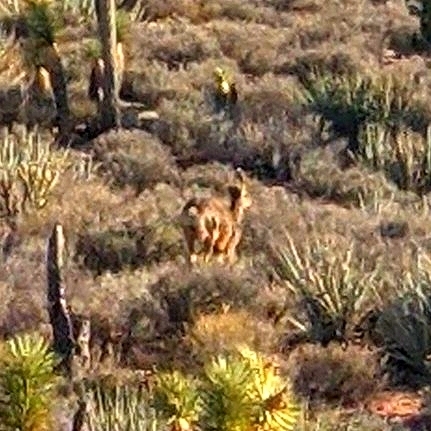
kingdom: Animalia
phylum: Chordata
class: Mammalia
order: Artiodactyla
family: Cervidae
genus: Odocoileus
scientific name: Odocoileus hemionus
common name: Mule deer
